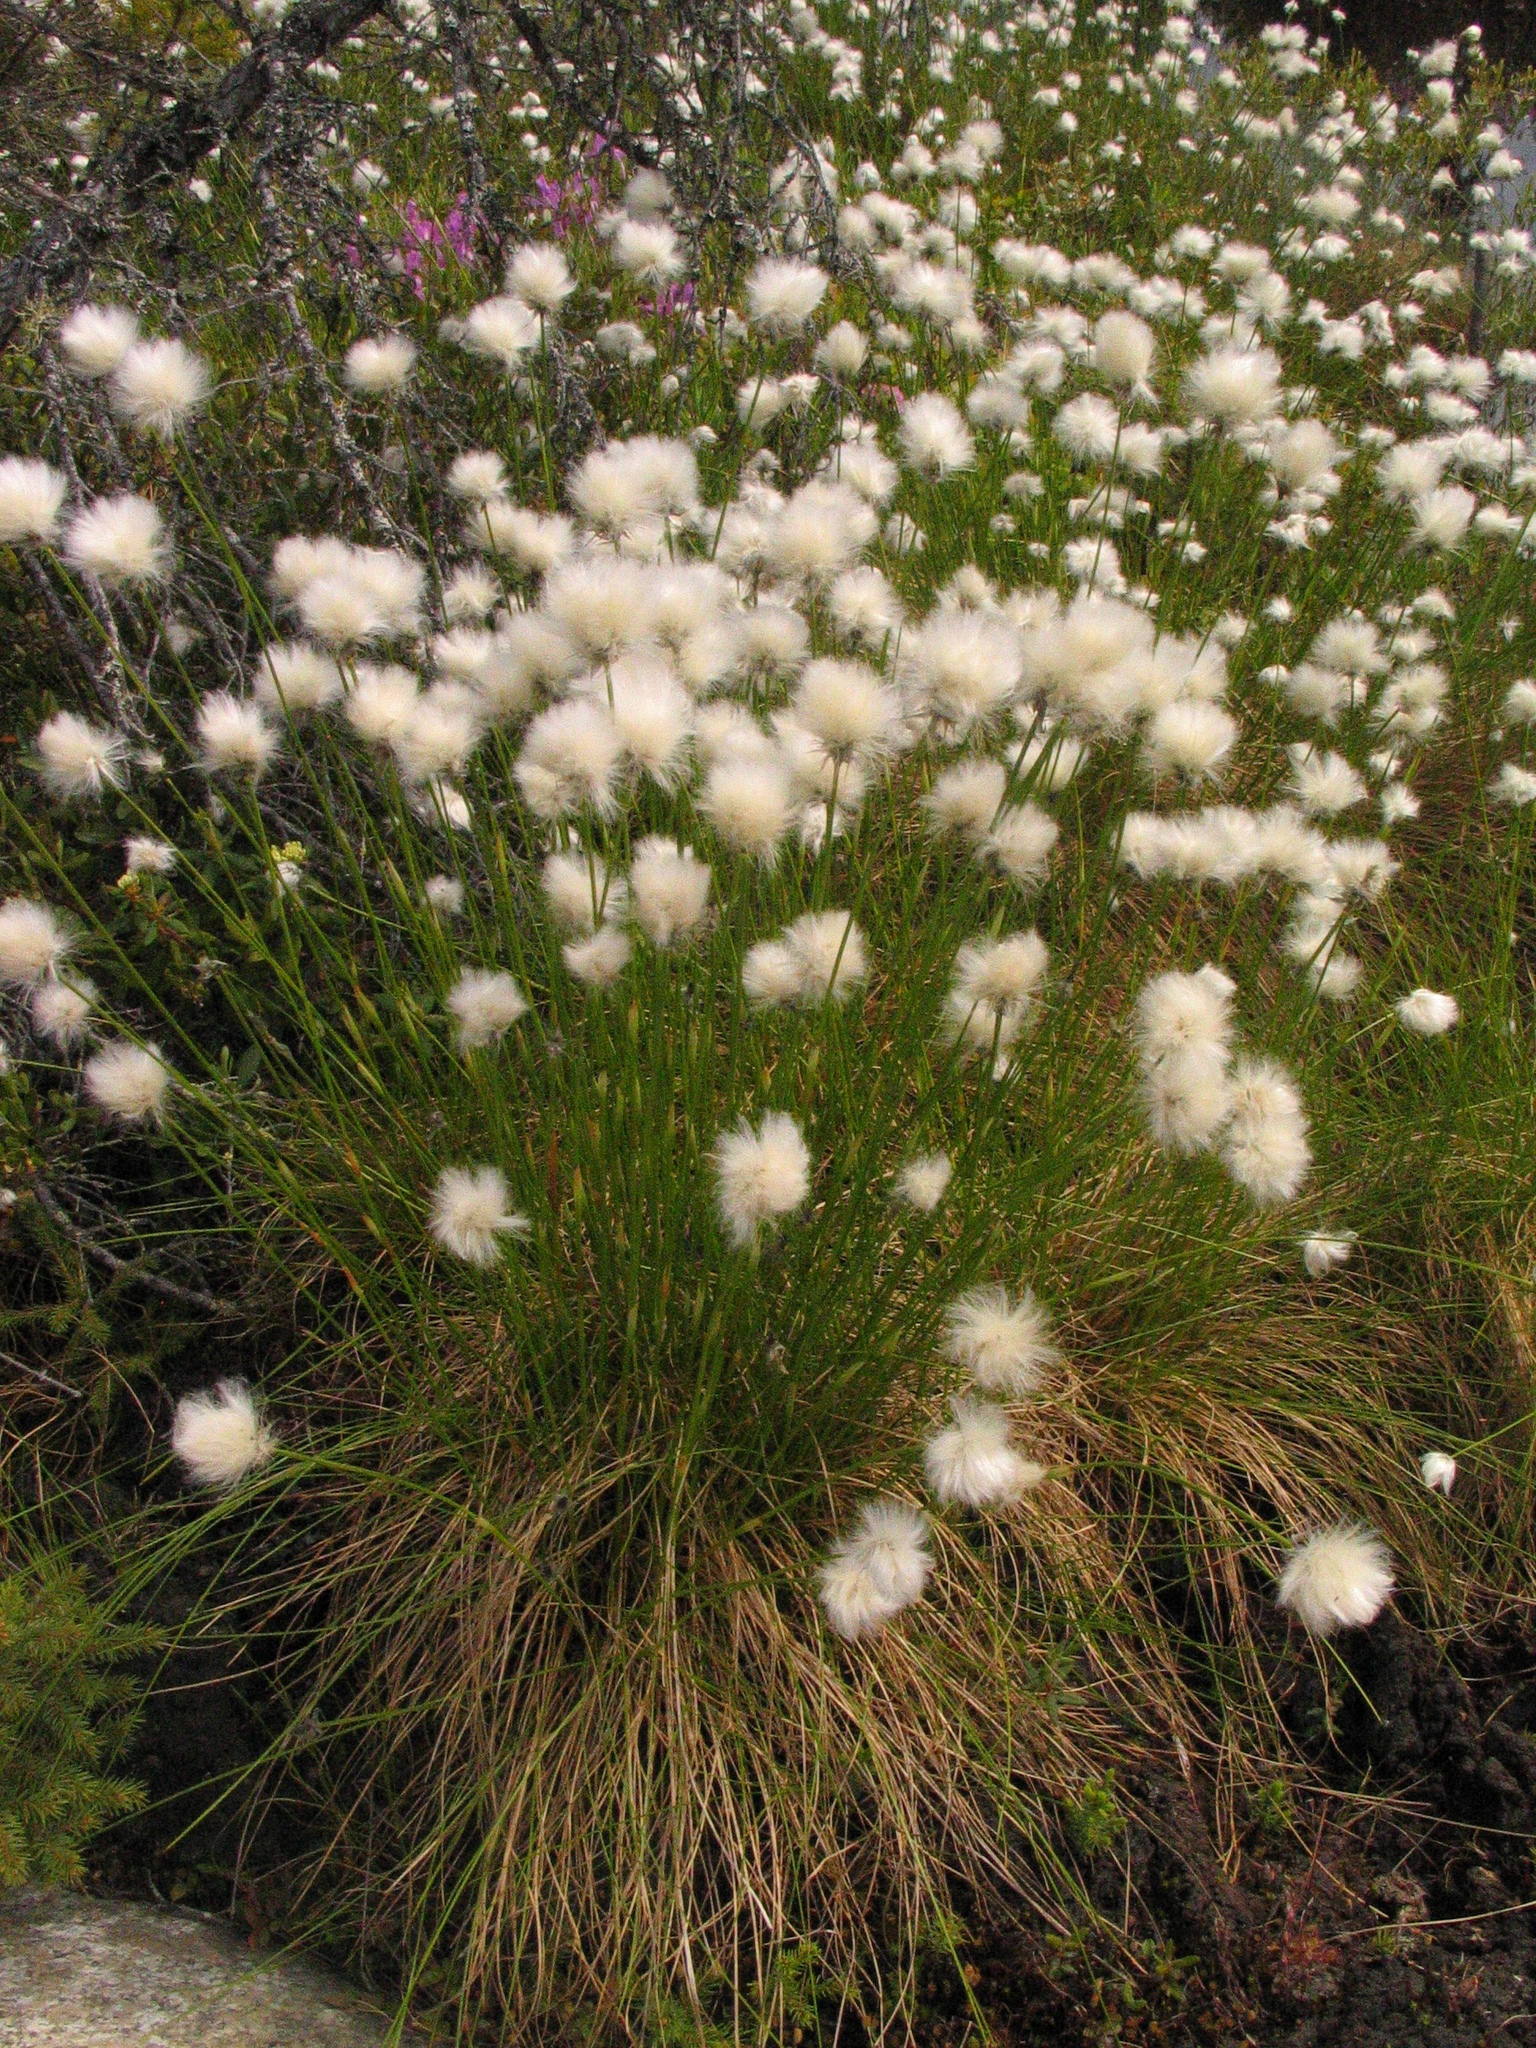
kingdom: Plantae
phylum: Tracheophyta
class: Liliopsida
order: Poales
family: Cyperaceae
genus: Eriophorum
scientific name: Eriophorum vaginatum
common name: Hare's-tail cottongrass
